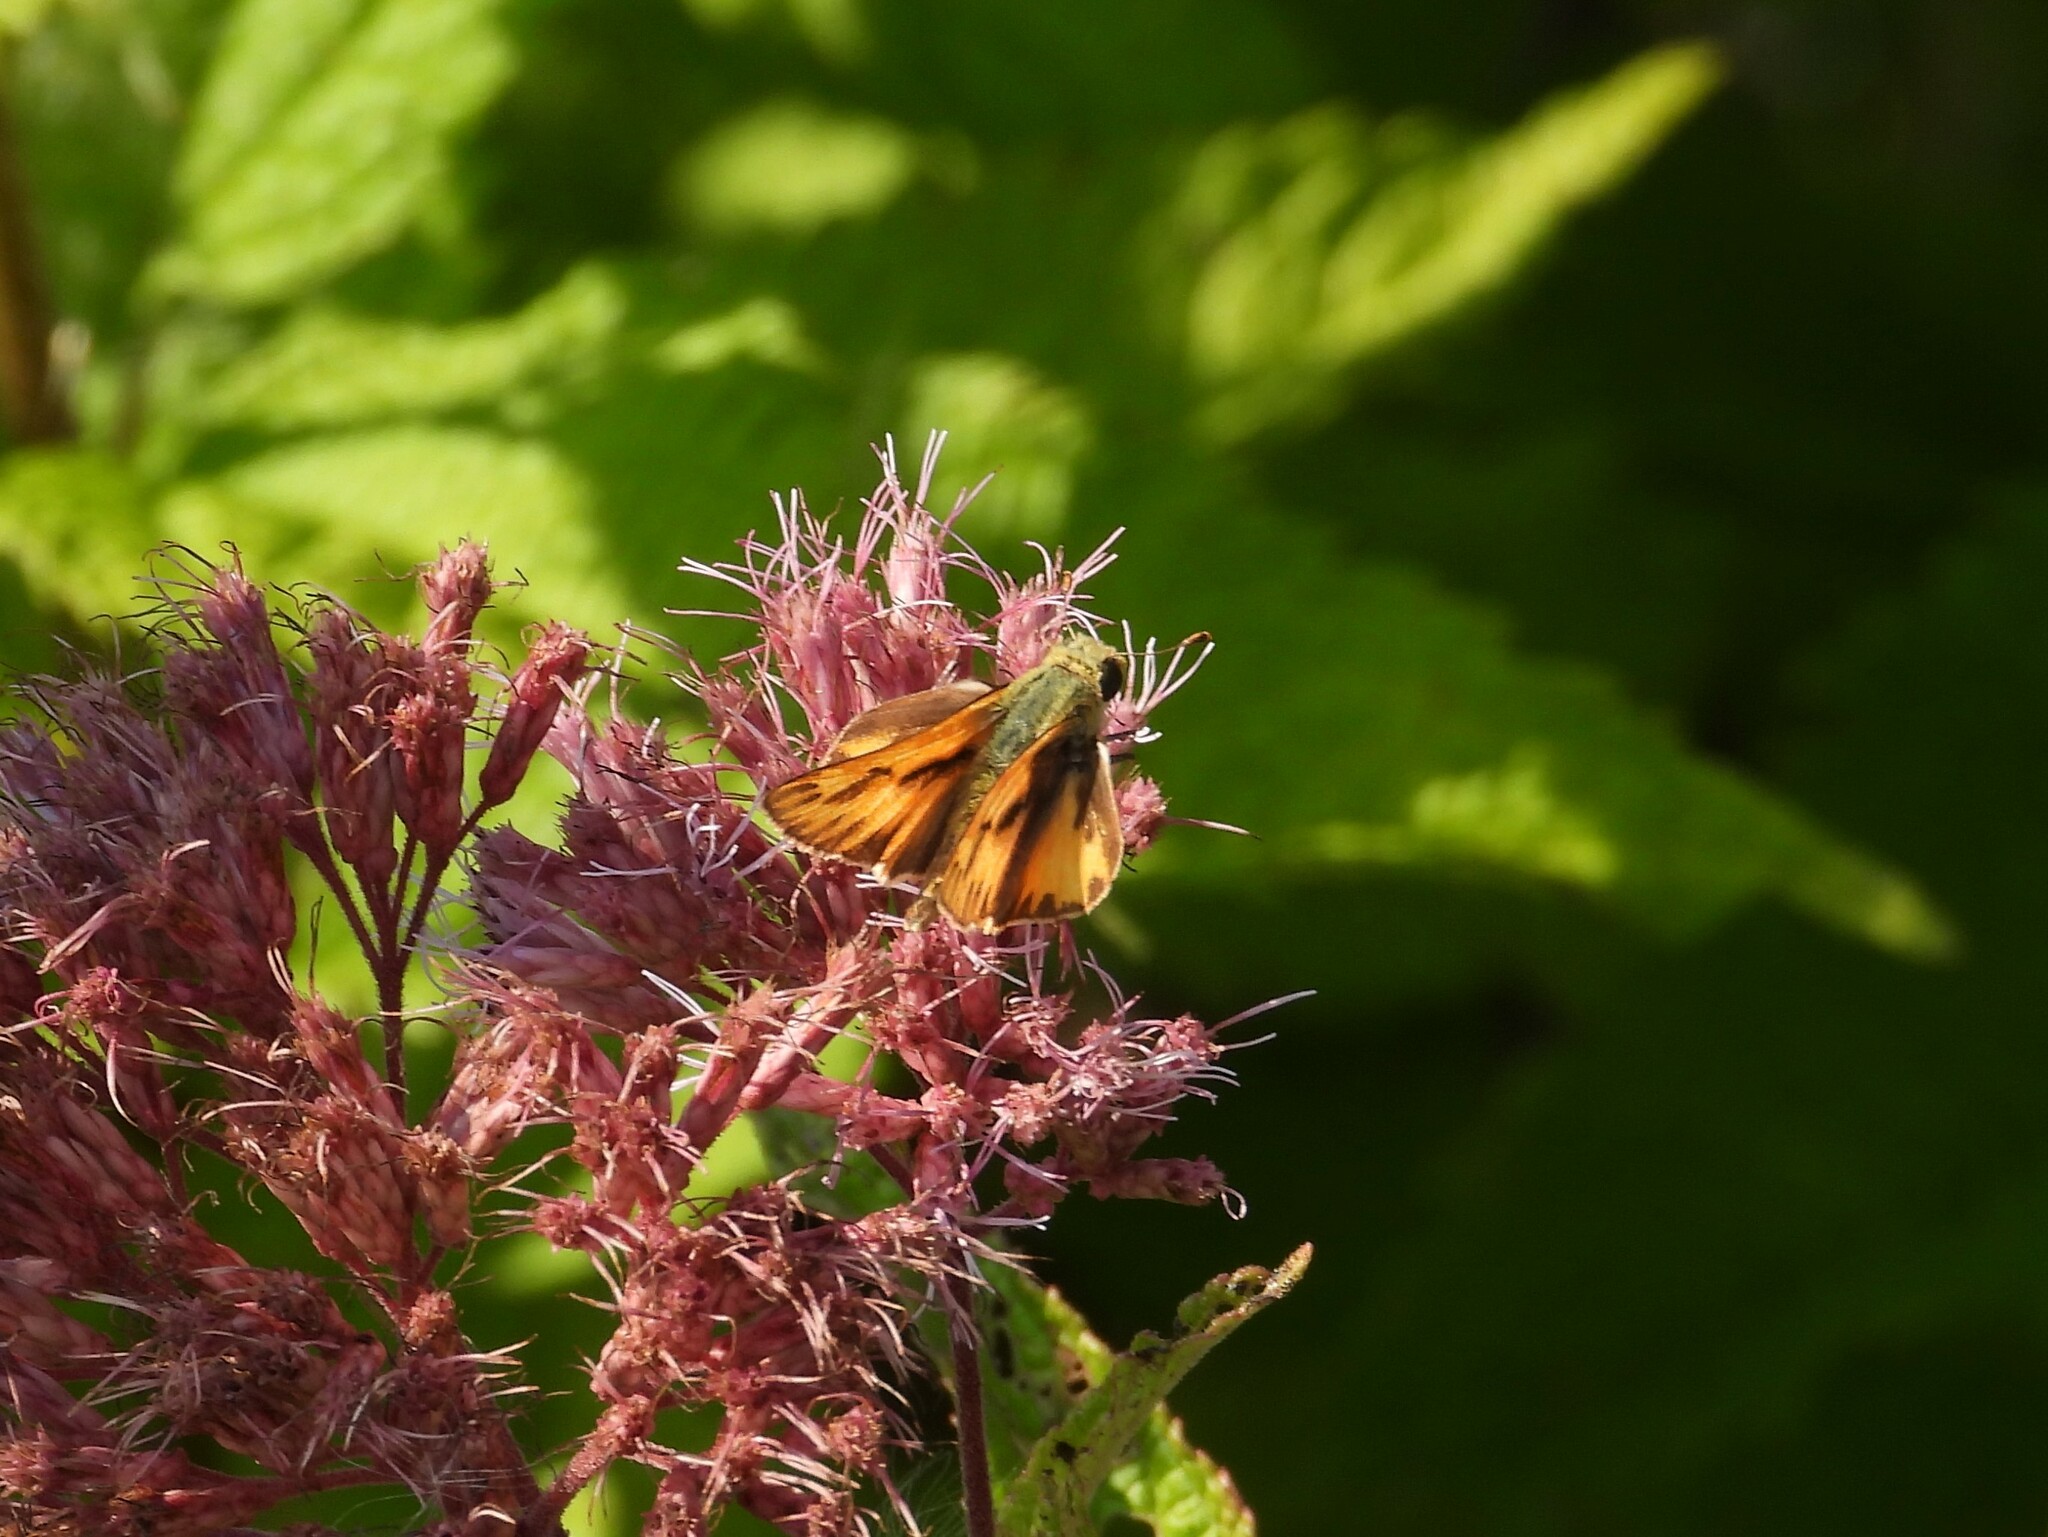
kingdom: Animalia
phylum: Arthropoda
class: Insecta
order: Lepidoptera
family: Hesperiidae
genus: Hylephila
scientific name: Hylephila phyleus
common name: Fiery skipper
